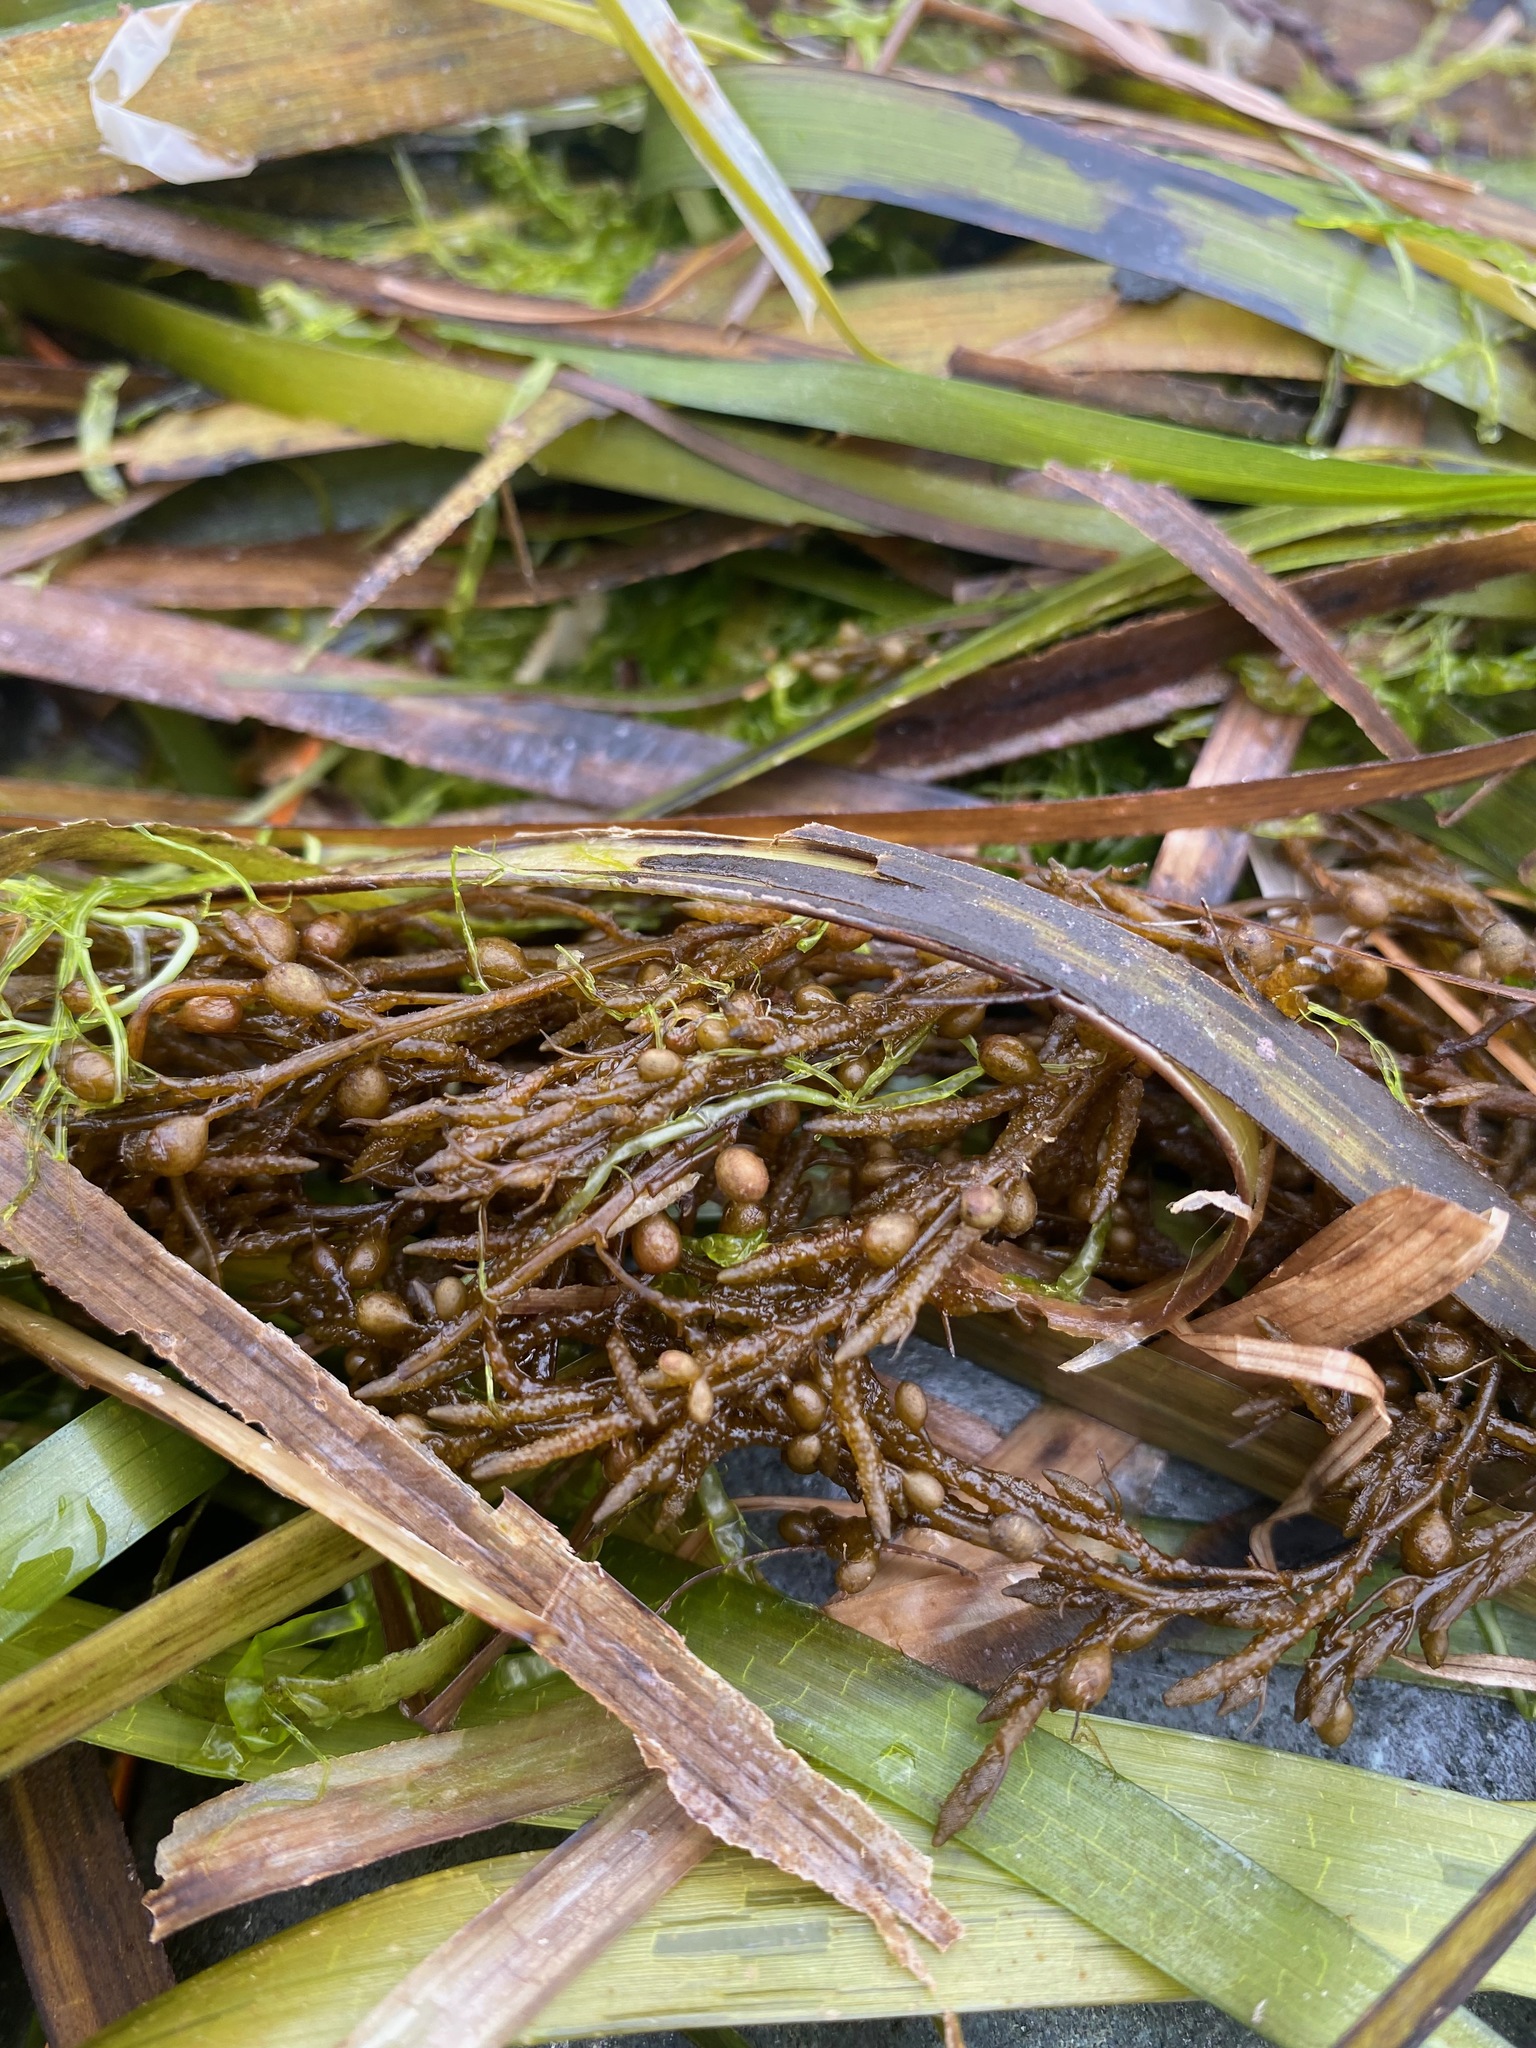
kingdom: Chromista
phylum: Ochrophyta
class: Phaeophyceae
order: Fucales
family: Sargassaceae
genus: Sargassum
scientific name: Sargassum muticum
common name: Japweed
